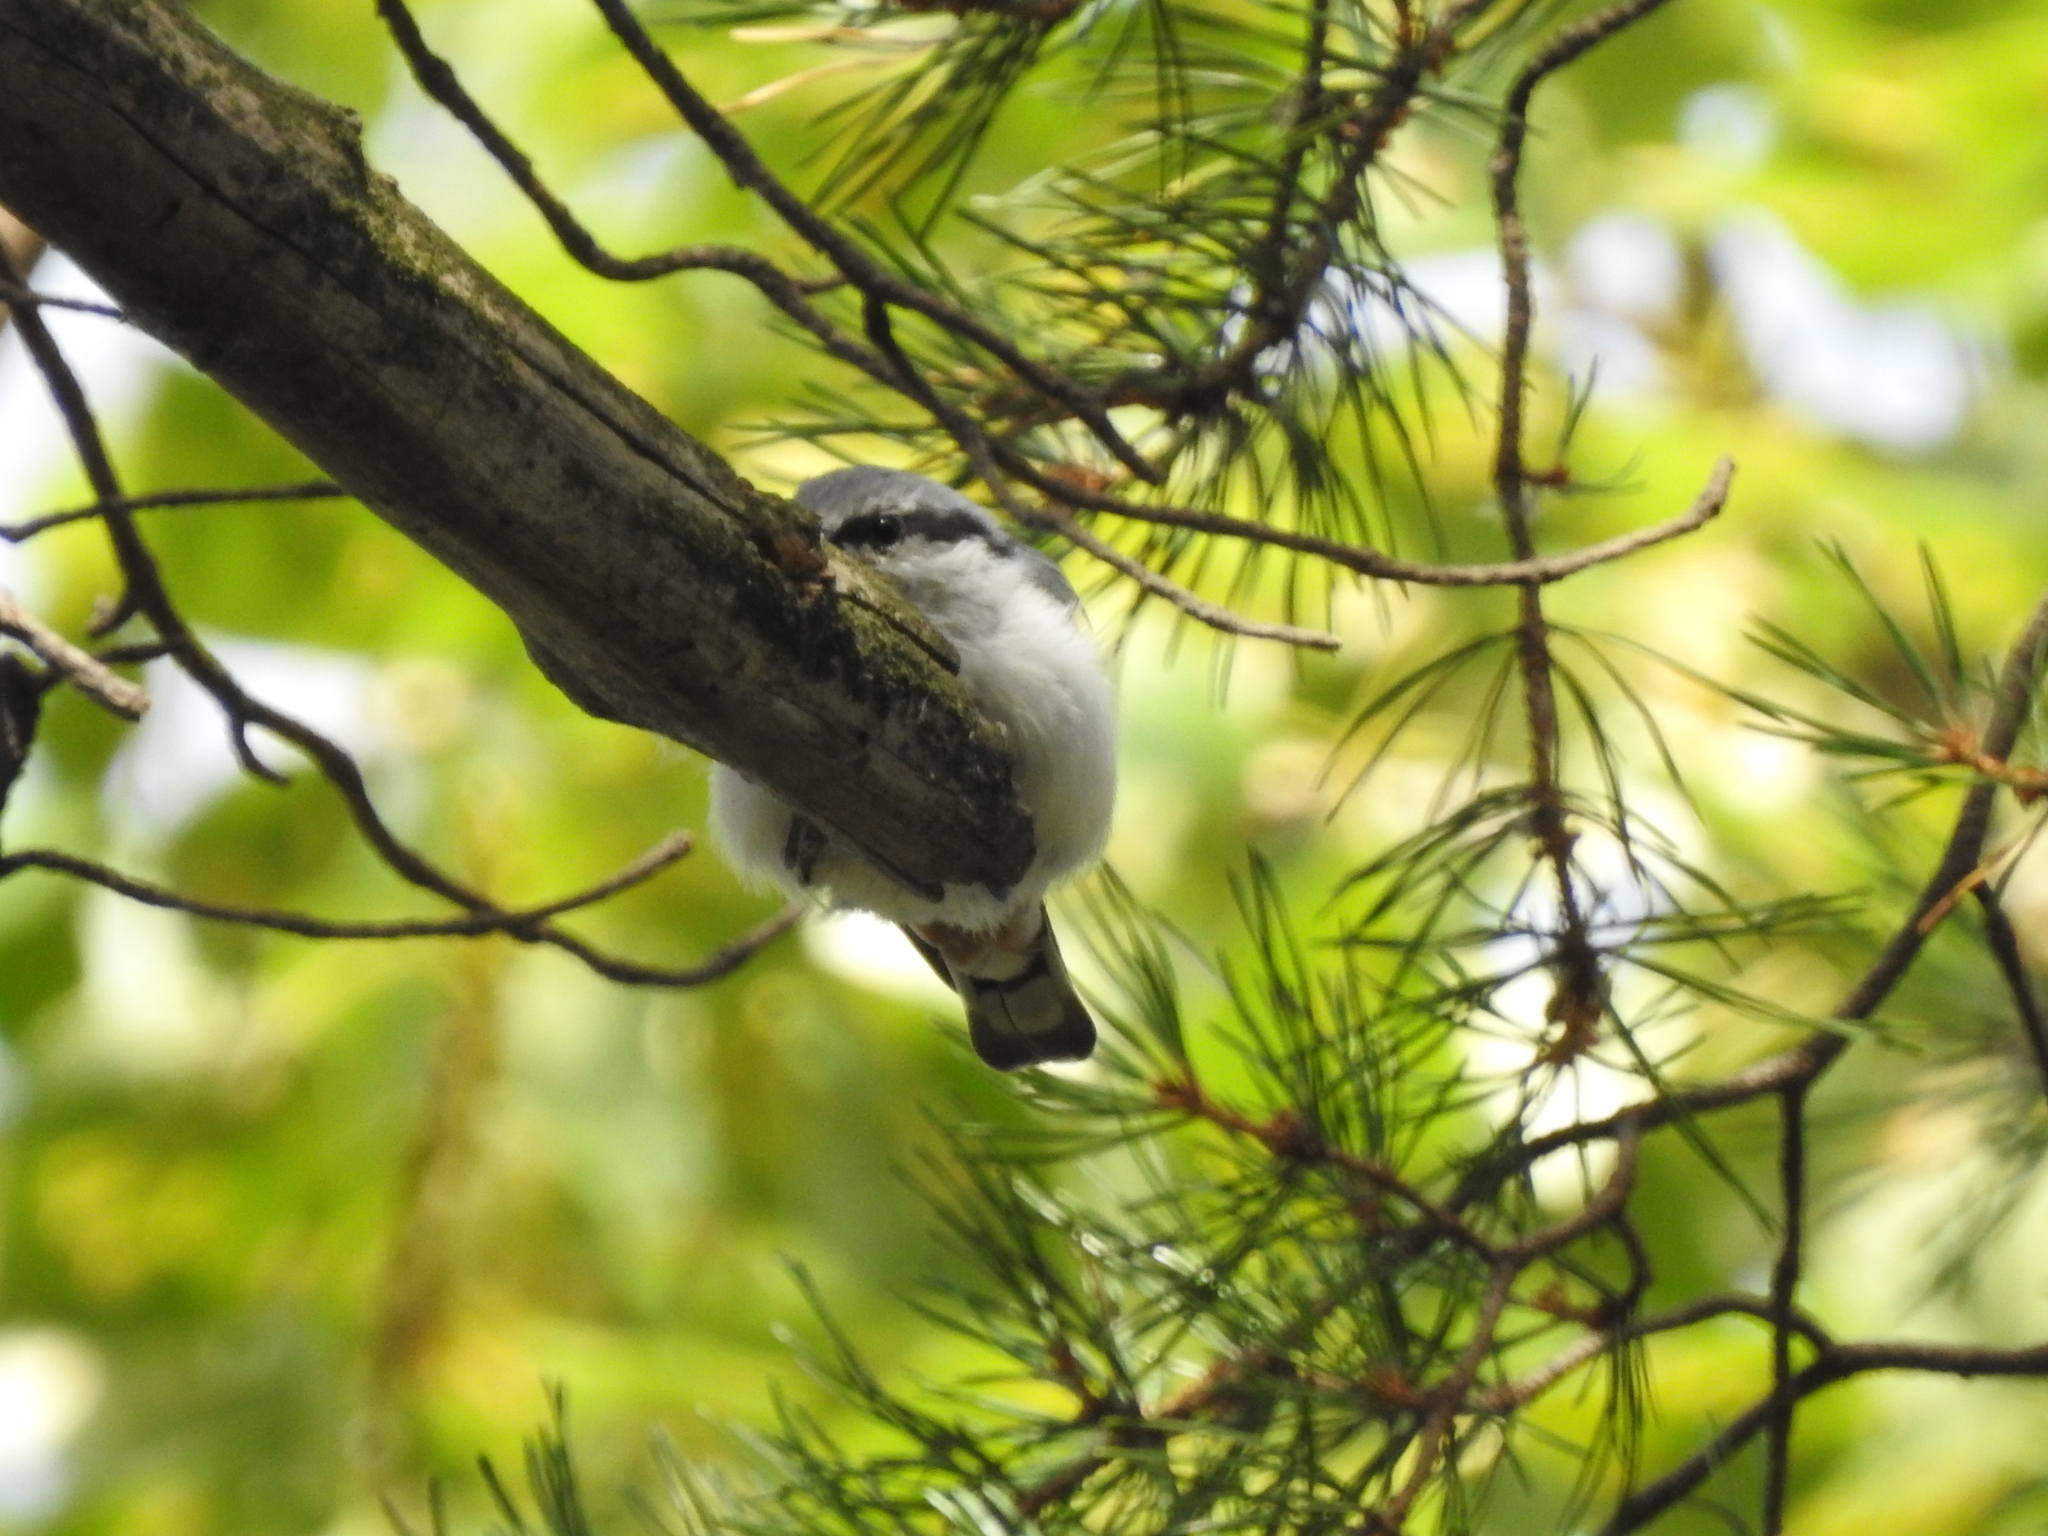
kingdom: Animalia
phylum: Chordata
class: Aves
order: Passeriformes
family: Sittidae
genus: Sitta
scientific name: Sitta europaea
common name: Eurasian nuthatch
